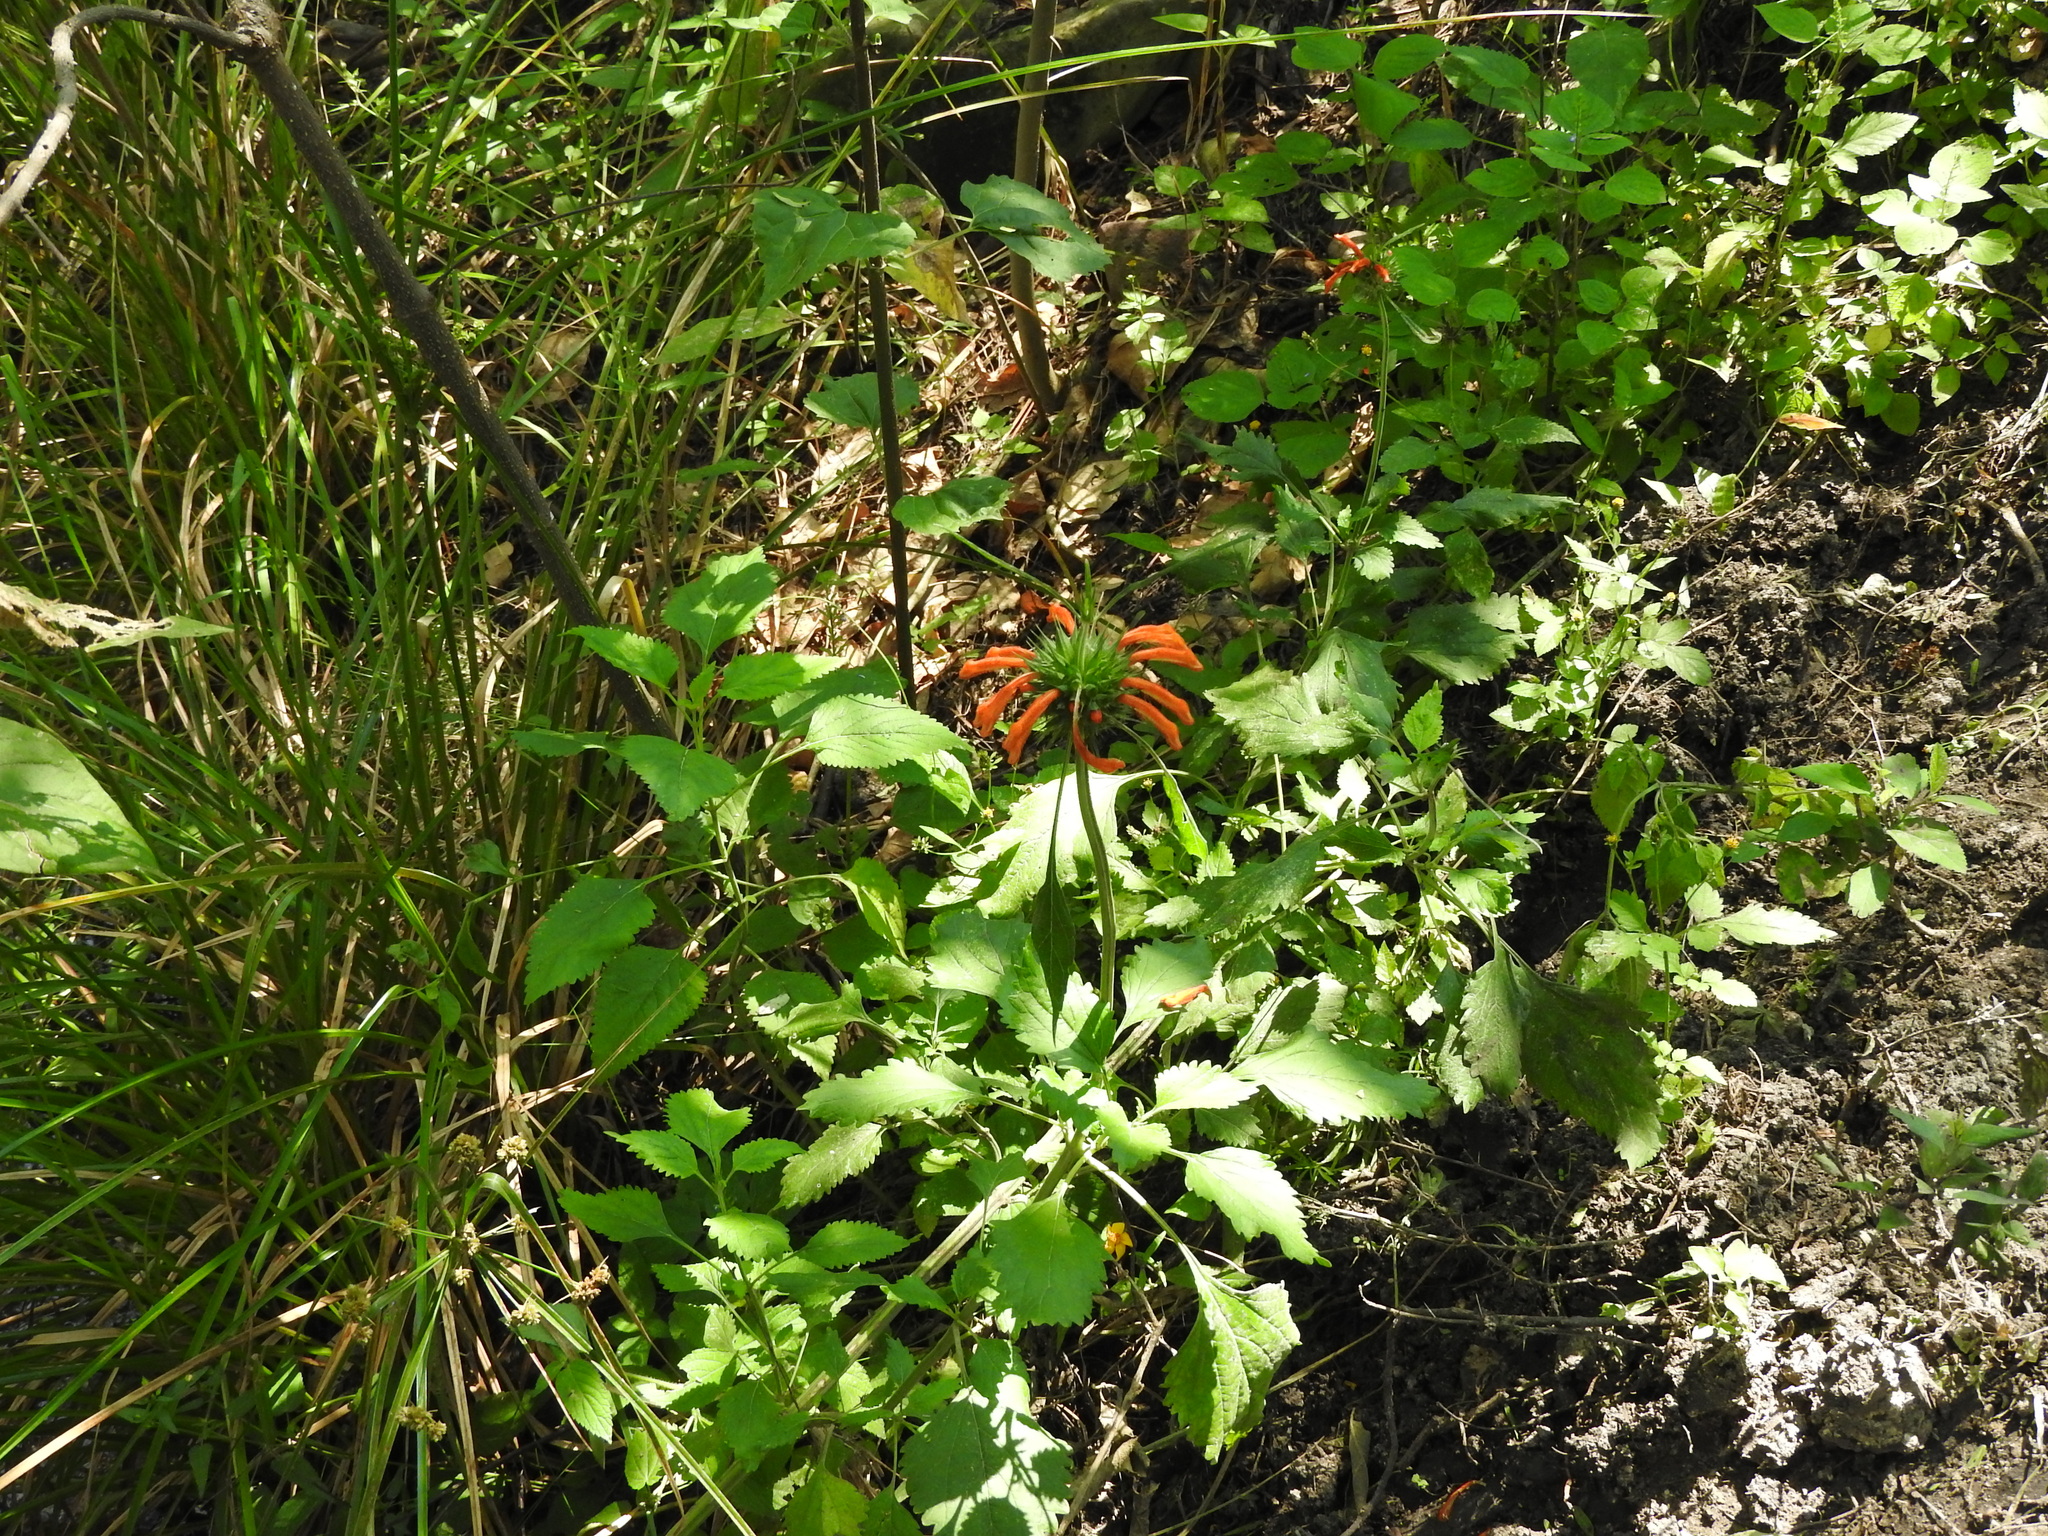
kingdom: Plantae
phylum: Tracheophyta
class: Magnoliopsida
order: Lamiales
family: Lamiaceae
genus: Leonotis
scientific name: Leonotis nepetifolia
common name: Christmas candlestick
